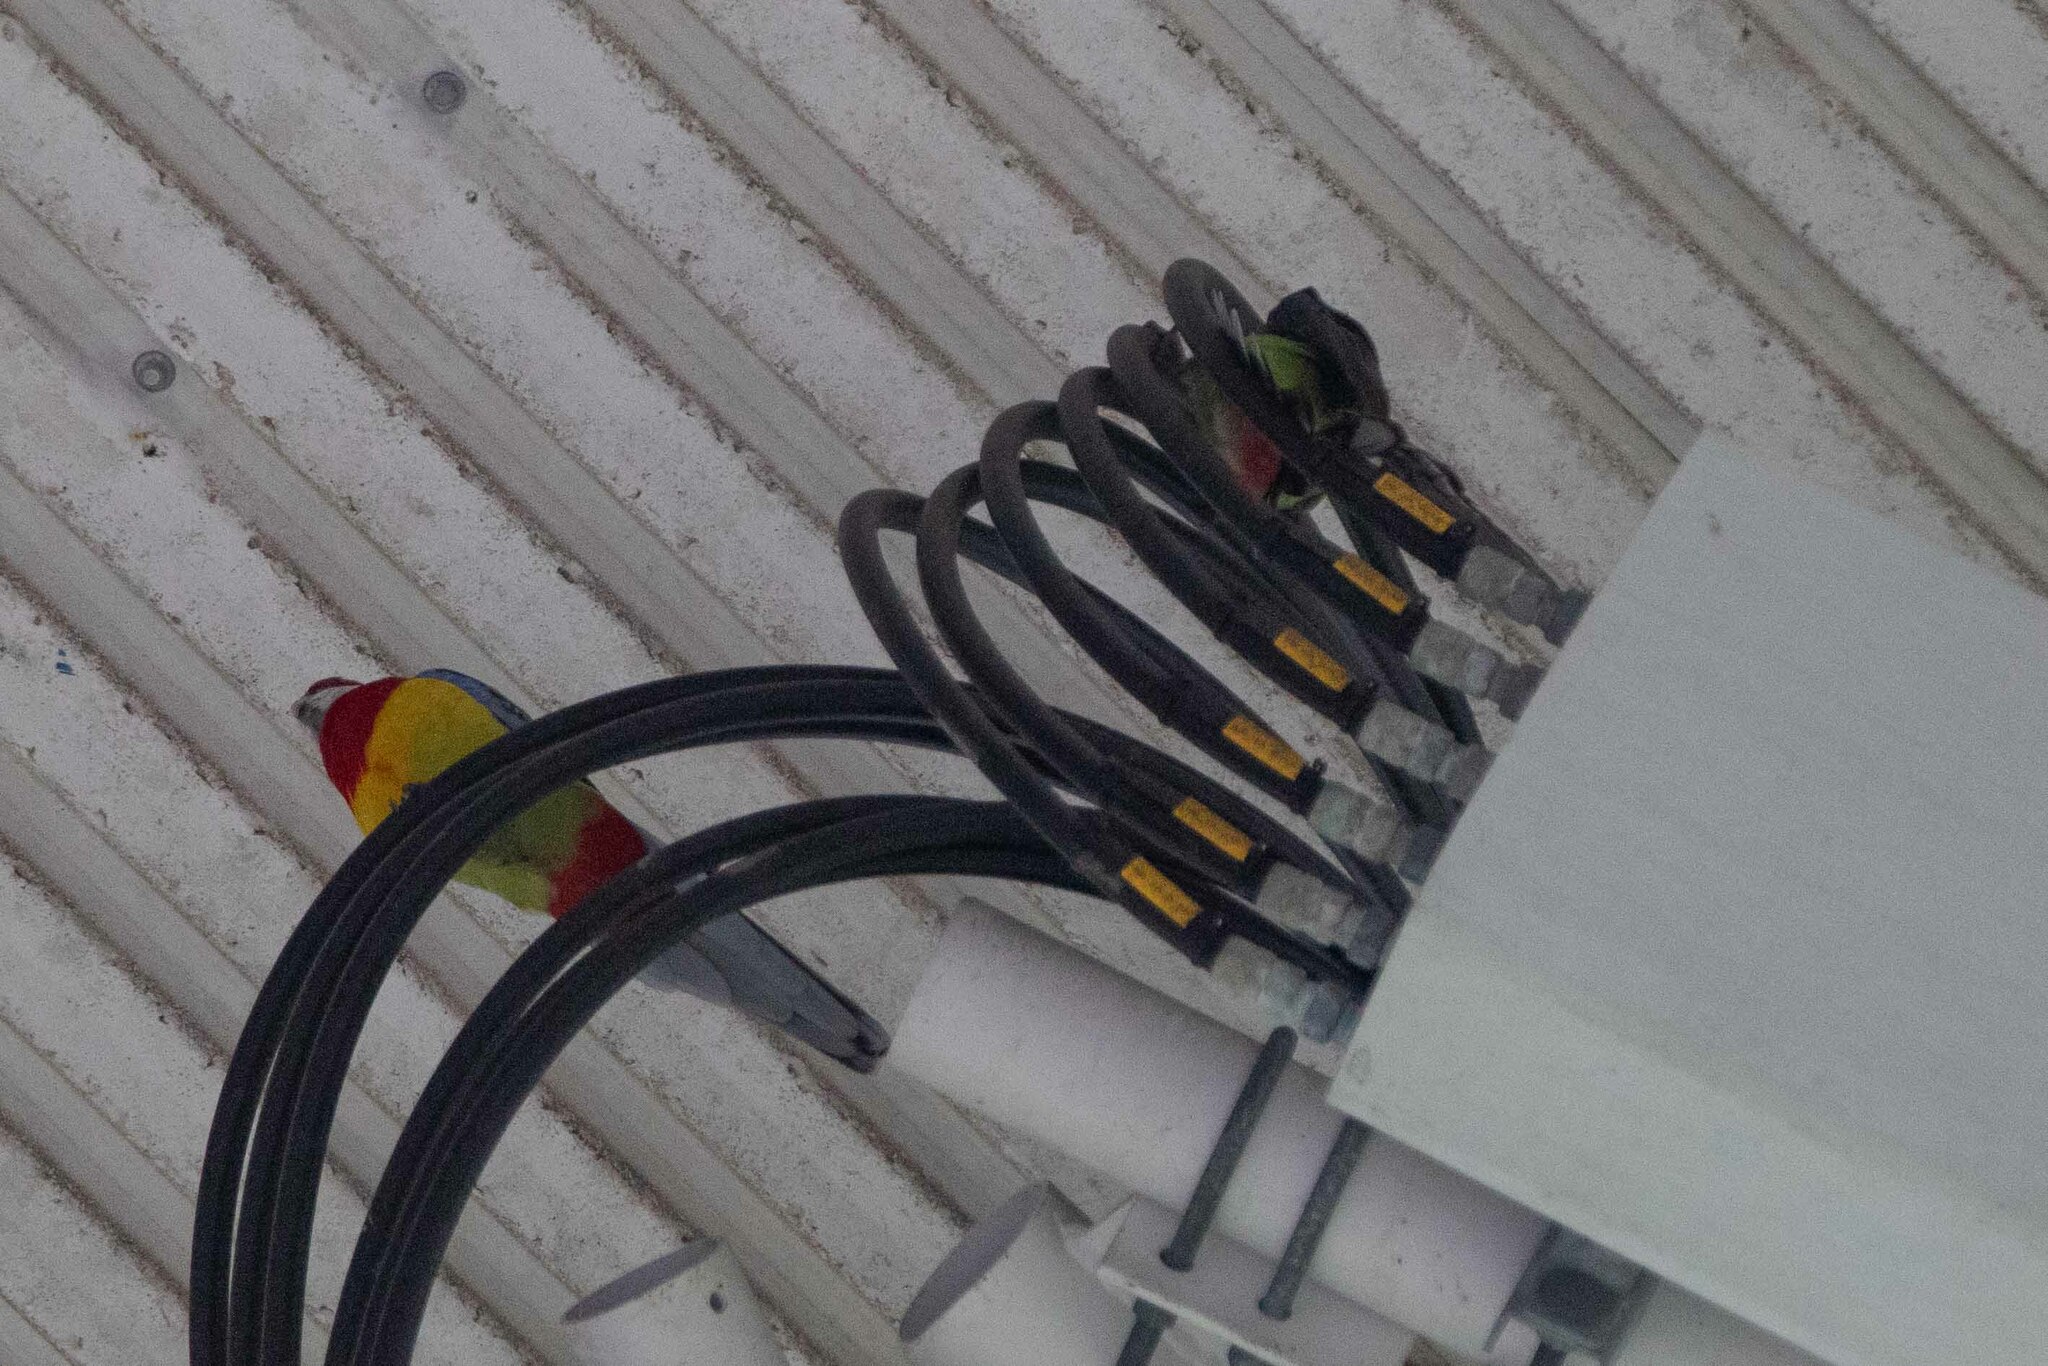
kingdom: Animalia
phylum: Chordata
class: Aves
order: Psittaciformes
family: Psittacidae
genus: Platycercus
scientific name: Platycercus eximius
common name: Eastern rosella
